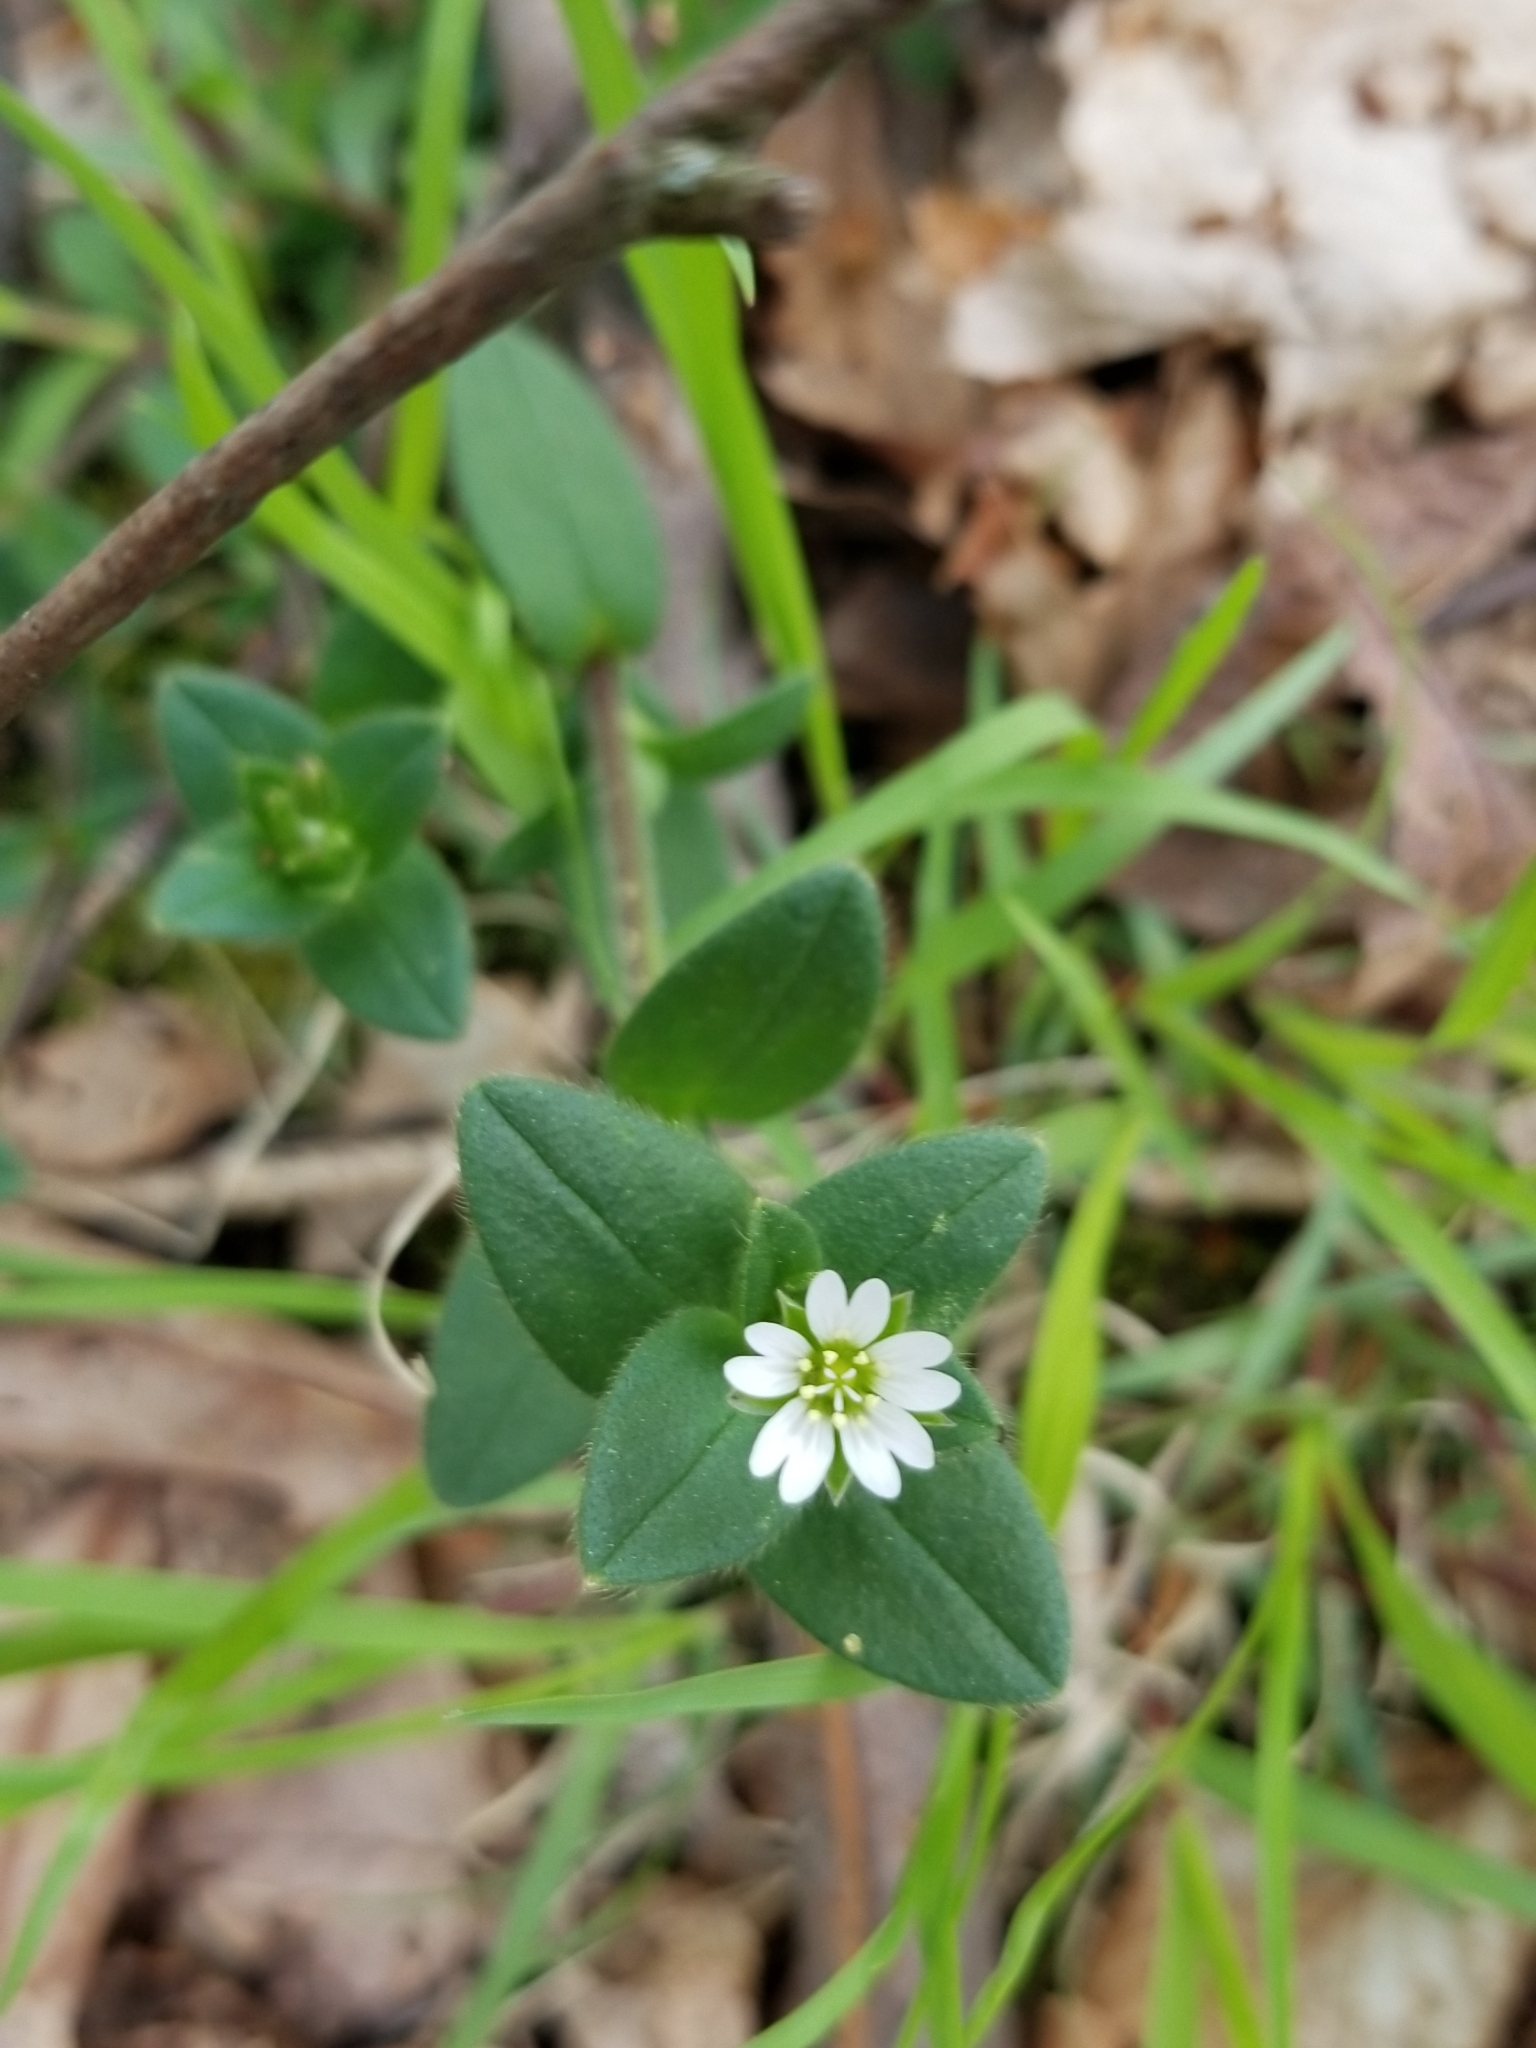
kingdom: Plantae
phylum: Tracheophyta
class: Magnoliopsida
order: Caryophyllales
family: Caryophyllaceae
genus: Cerastium
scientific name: Cerastium fontanum
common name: Common mouse-ear
